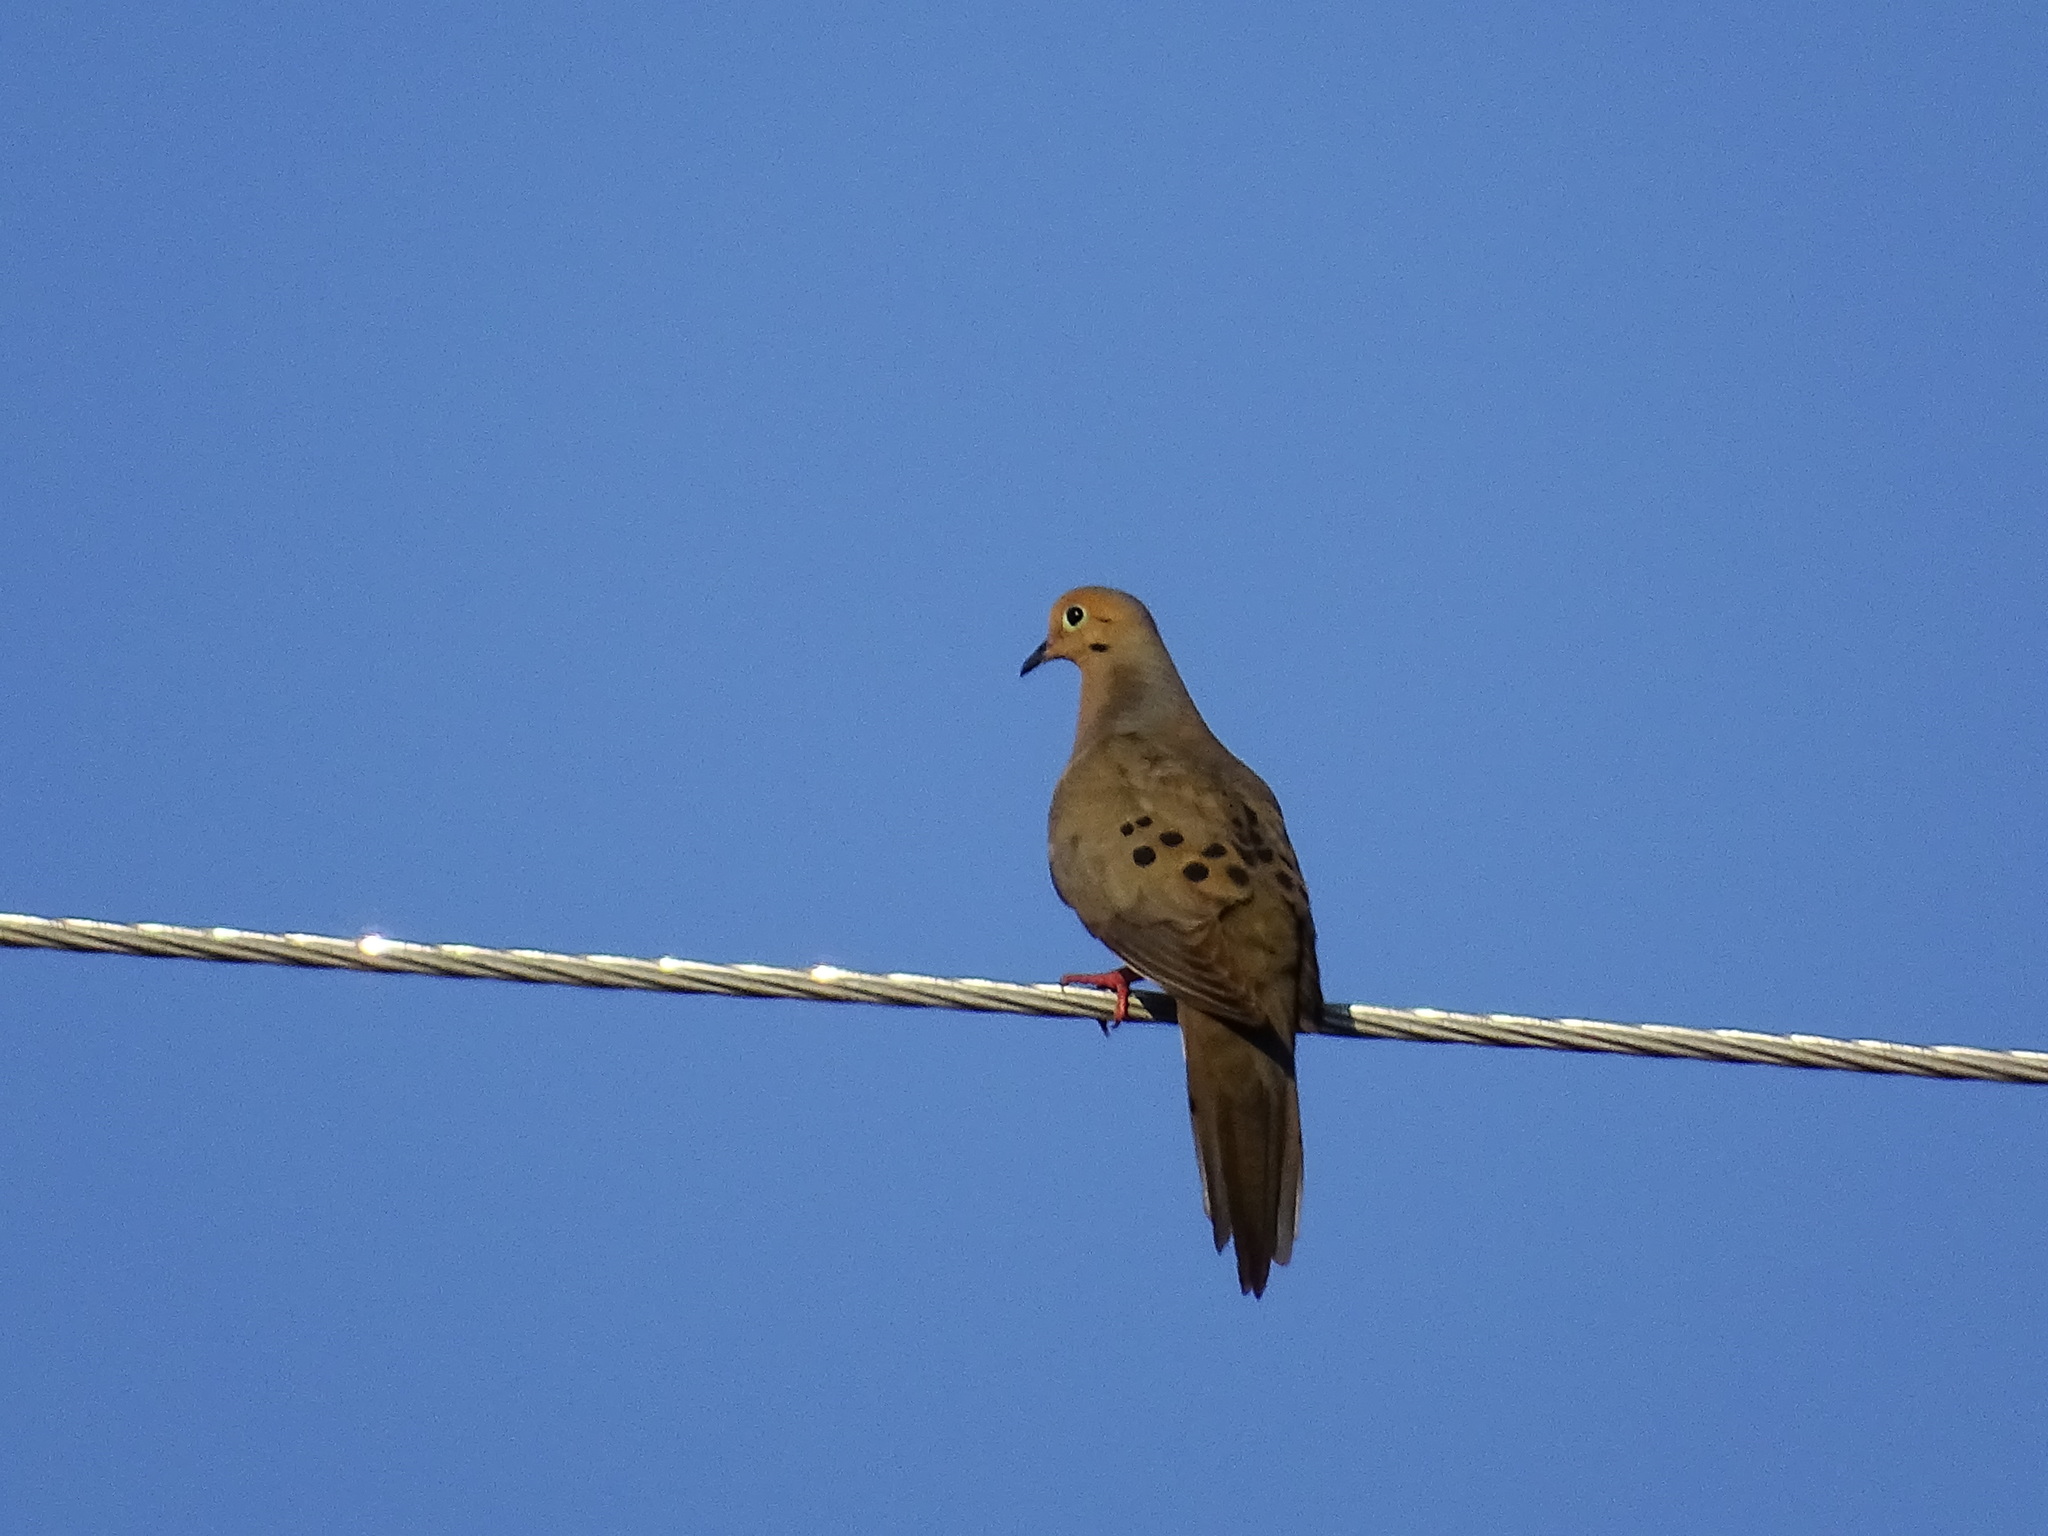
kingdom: Animalia
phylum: Chordata
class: Aves
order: Columbiformes
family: Columbidae
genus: Zenaida
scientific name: Zenaida macroura
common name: Mourning dove
